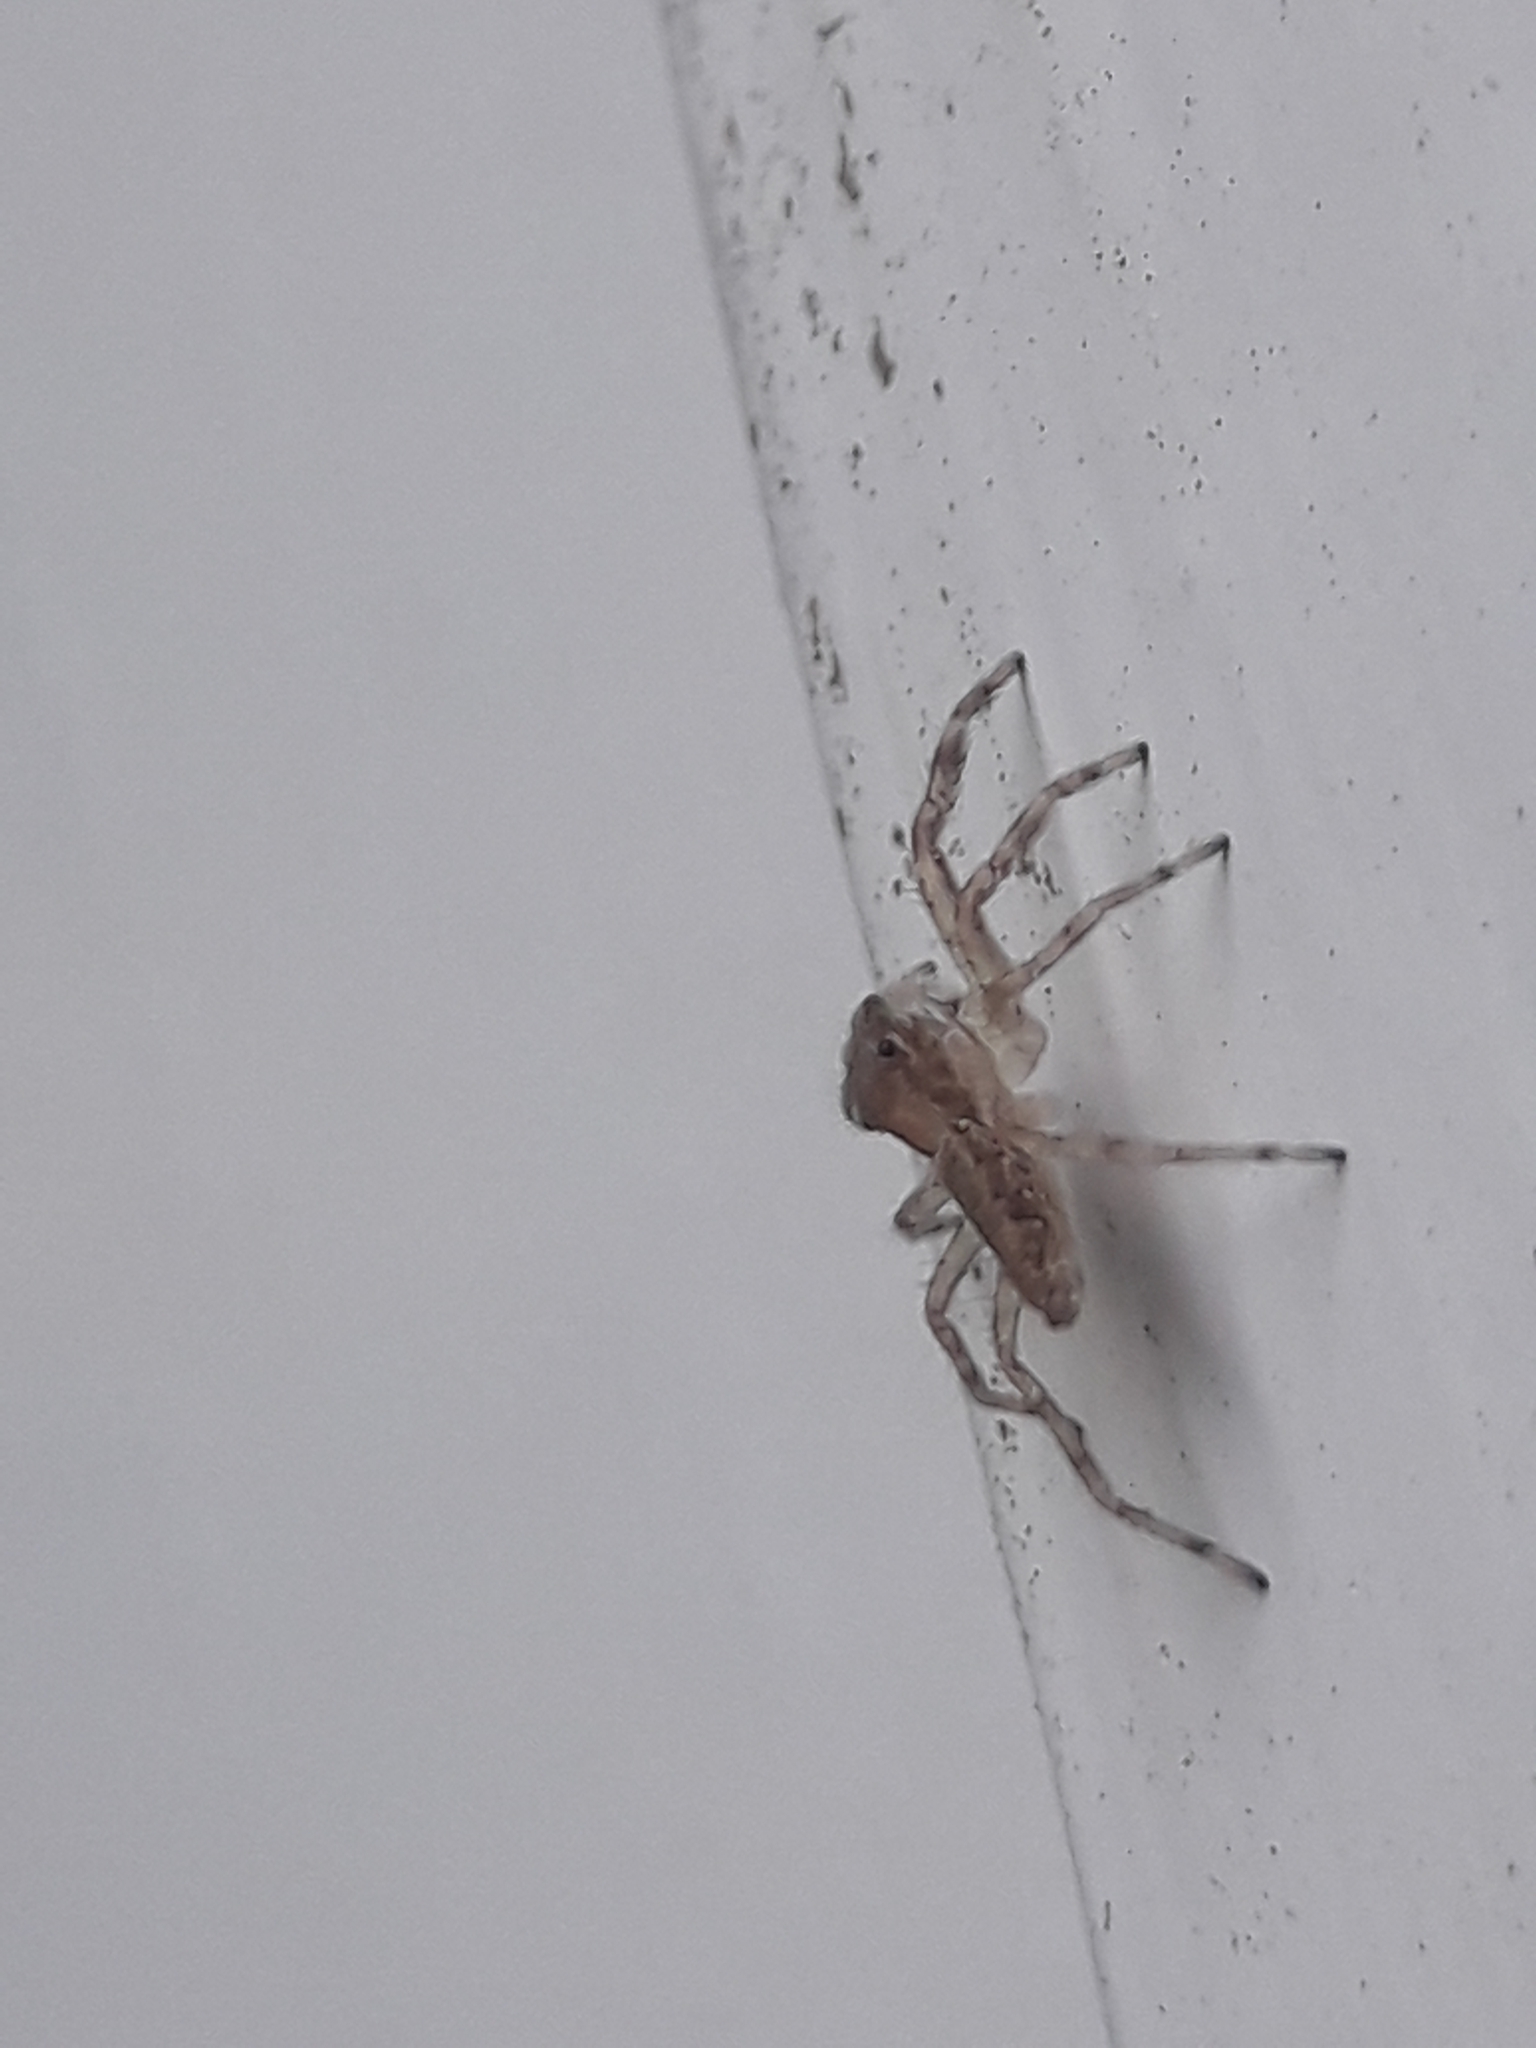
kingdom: Animalia
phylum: Arthropoda
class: Arachnida
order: Araneae
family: Salticidae
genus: Helpis
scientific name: Helpis minitabunda
